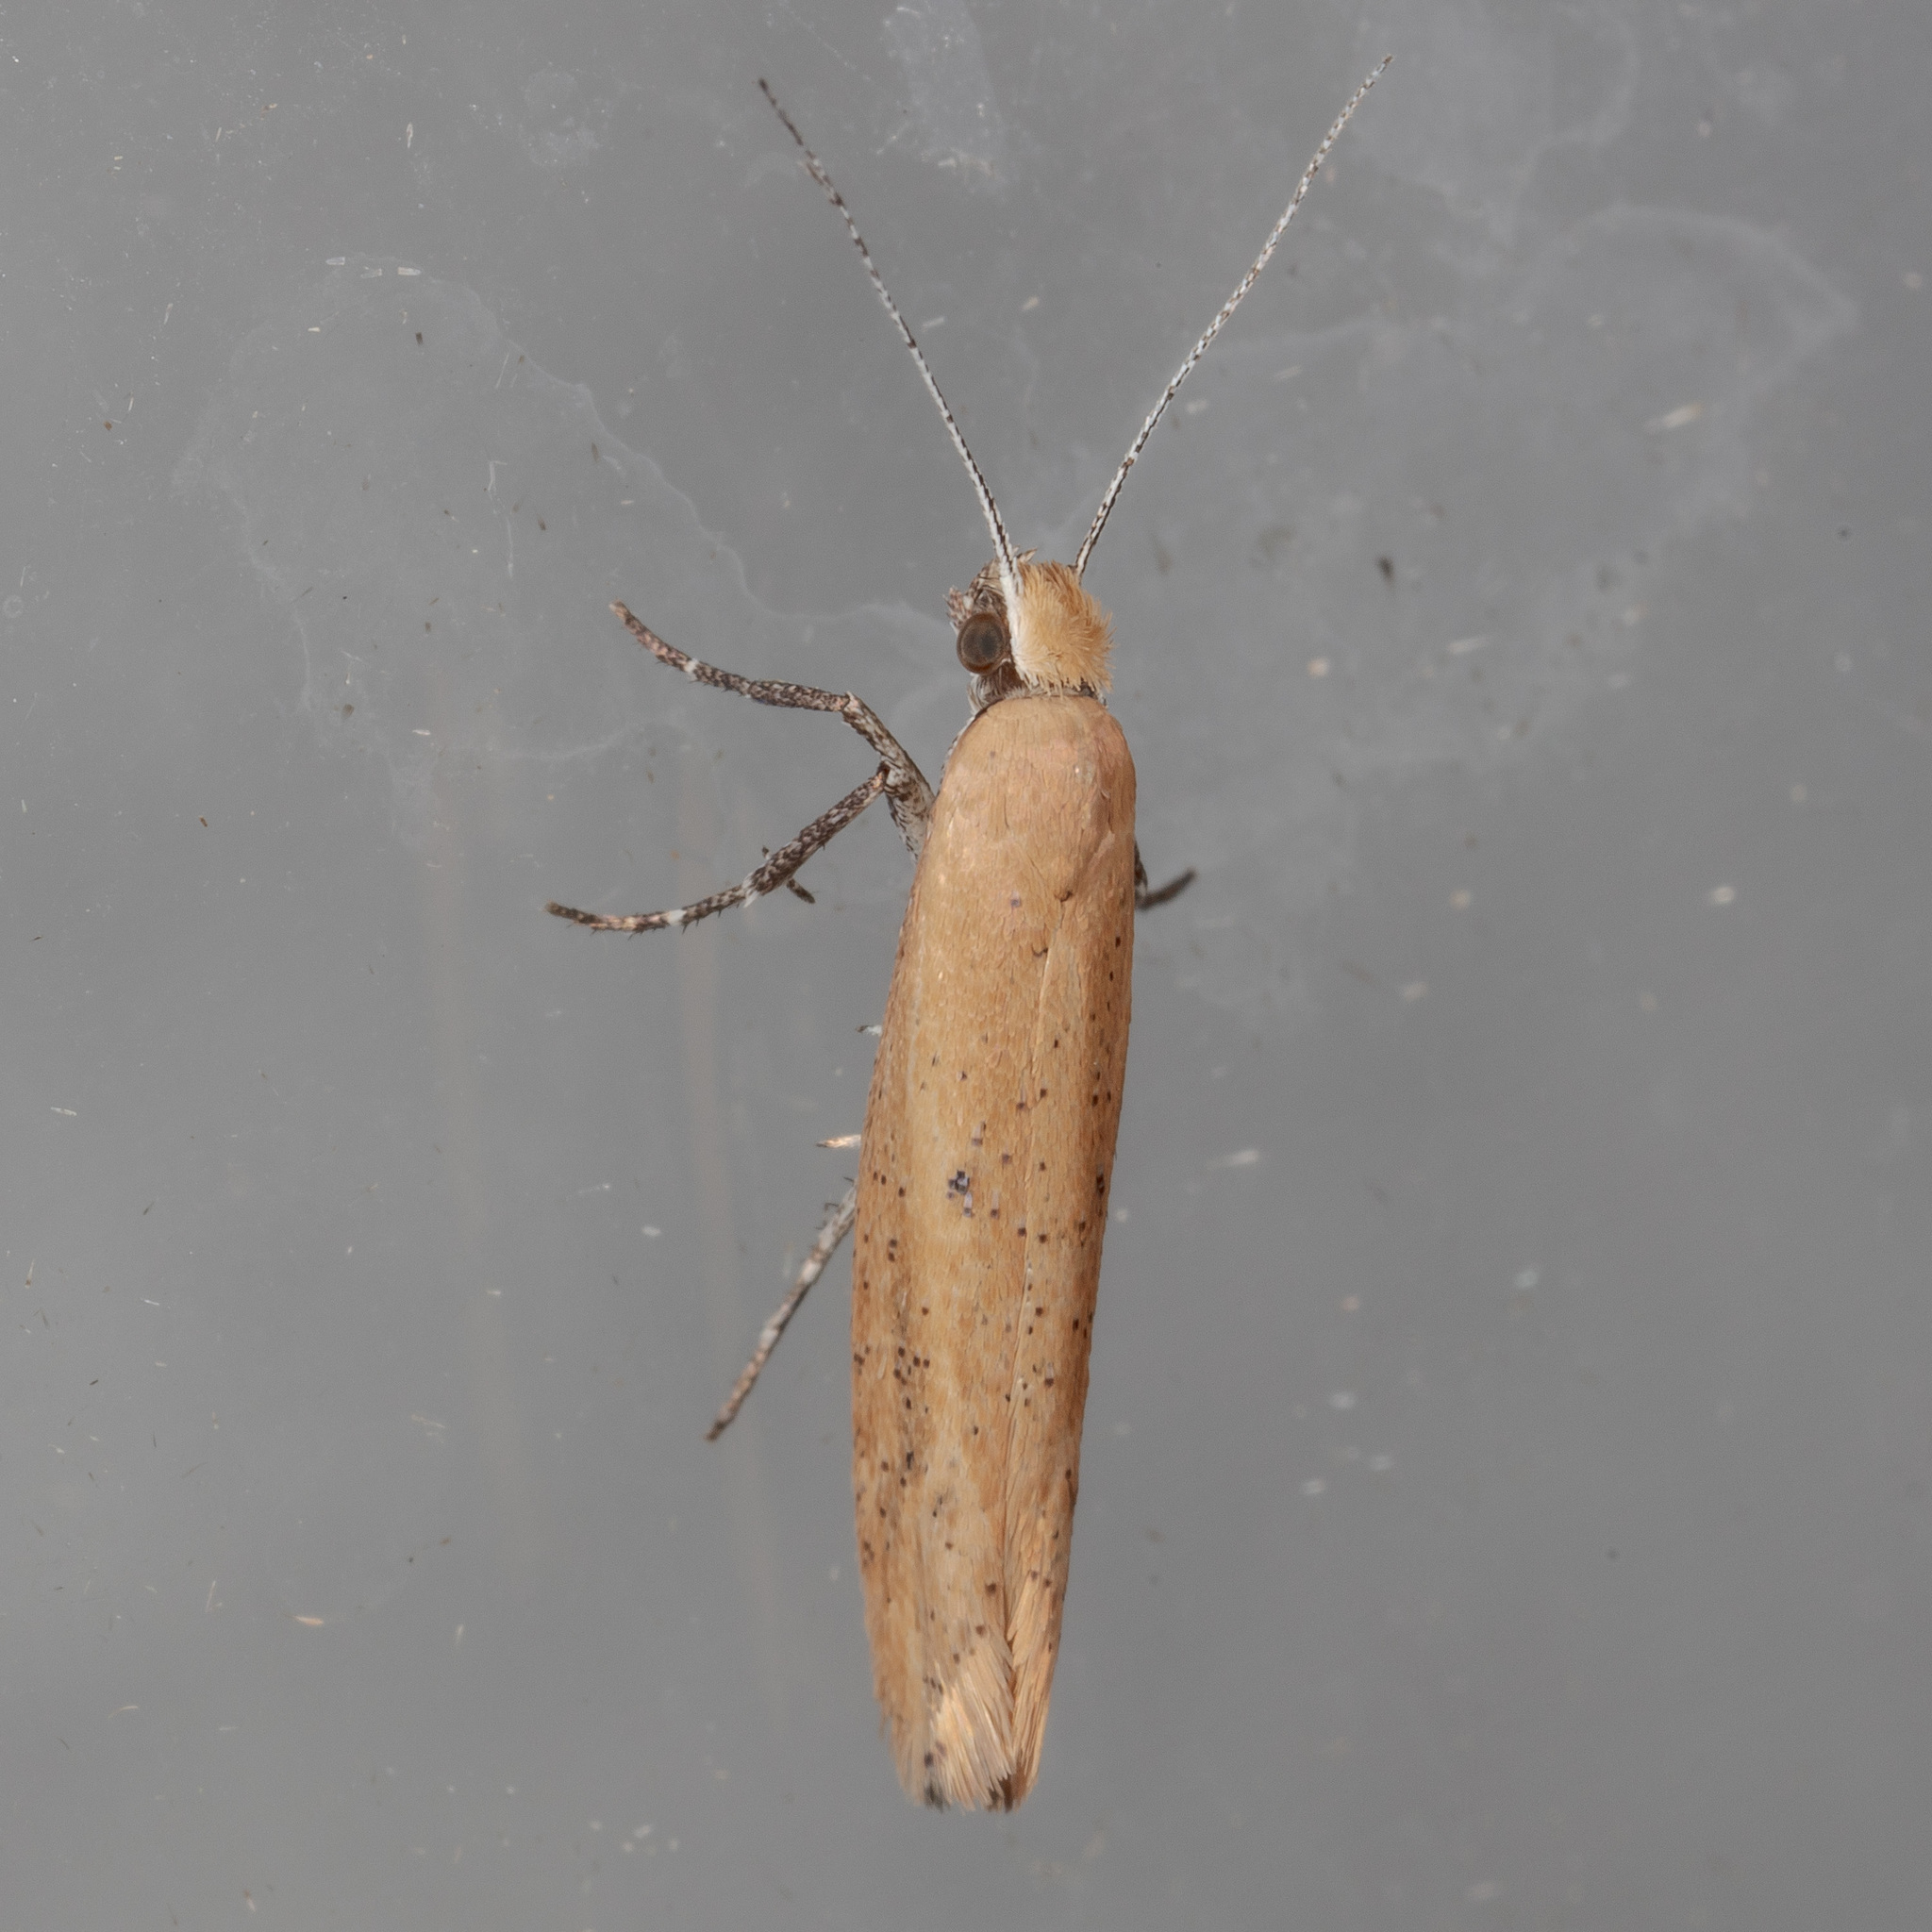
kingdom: Animalia
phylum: Arthropoda
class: Insecta
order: Lepidoptera
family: Ypsolophidae
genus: Ypsolopha
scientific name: Ypsolopha
